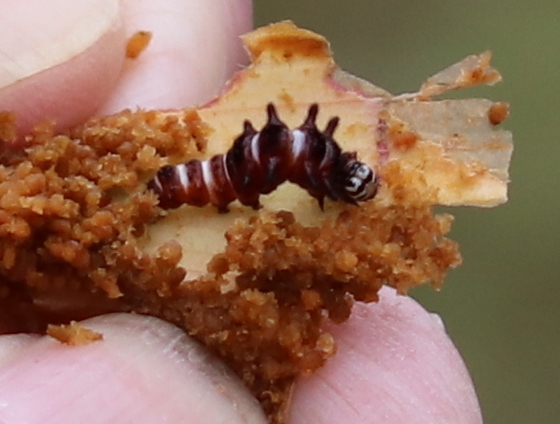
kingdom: Animalia
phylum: Arthropoda
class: Insecta
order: Lepidoptera
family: Noctuidae
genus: Exyra
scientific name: Exyra semicrocea
